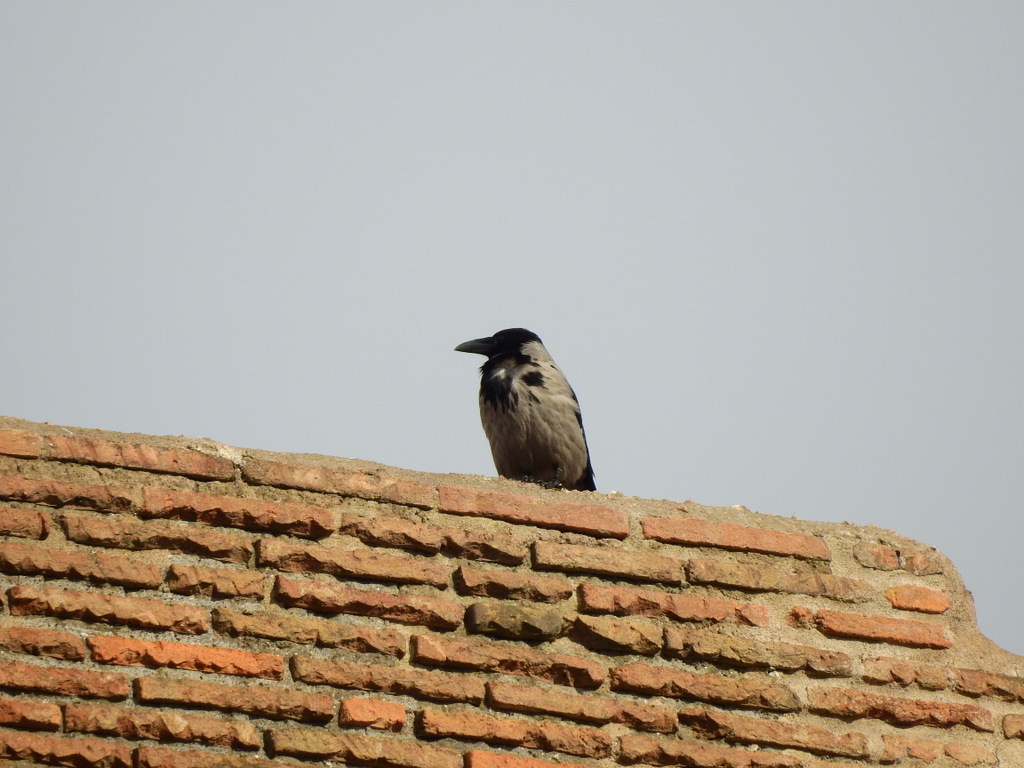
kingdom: Animalia
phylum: Chordata
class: Aves
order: Passeriformes
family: Corvidae
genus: Corvus
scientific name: Corvus cornix
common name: Hooded crow
